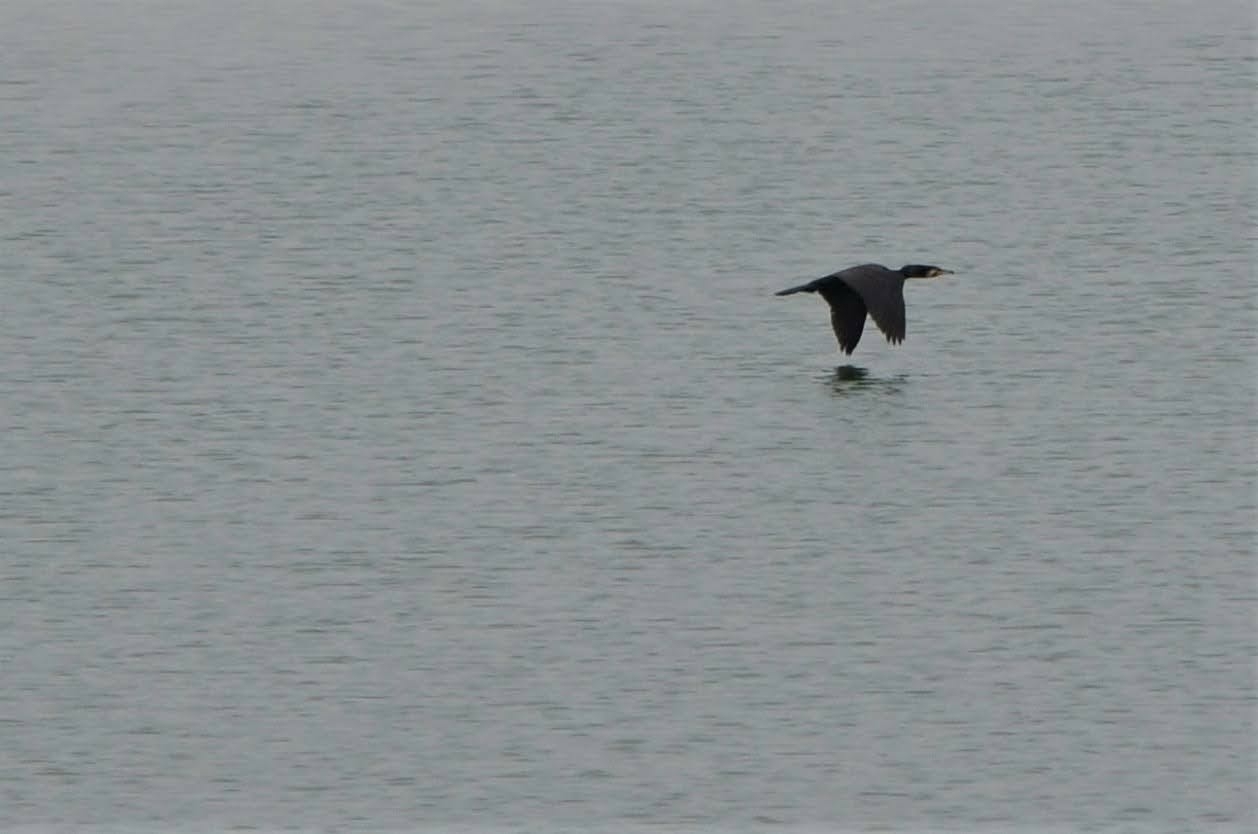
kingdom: Animalia
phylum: Chordata
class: Aves
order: Suliformes
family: Phalacrocoracidae
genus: Phalacrocorax
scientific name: Phalacrocorax carbo
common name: Great cormorant
